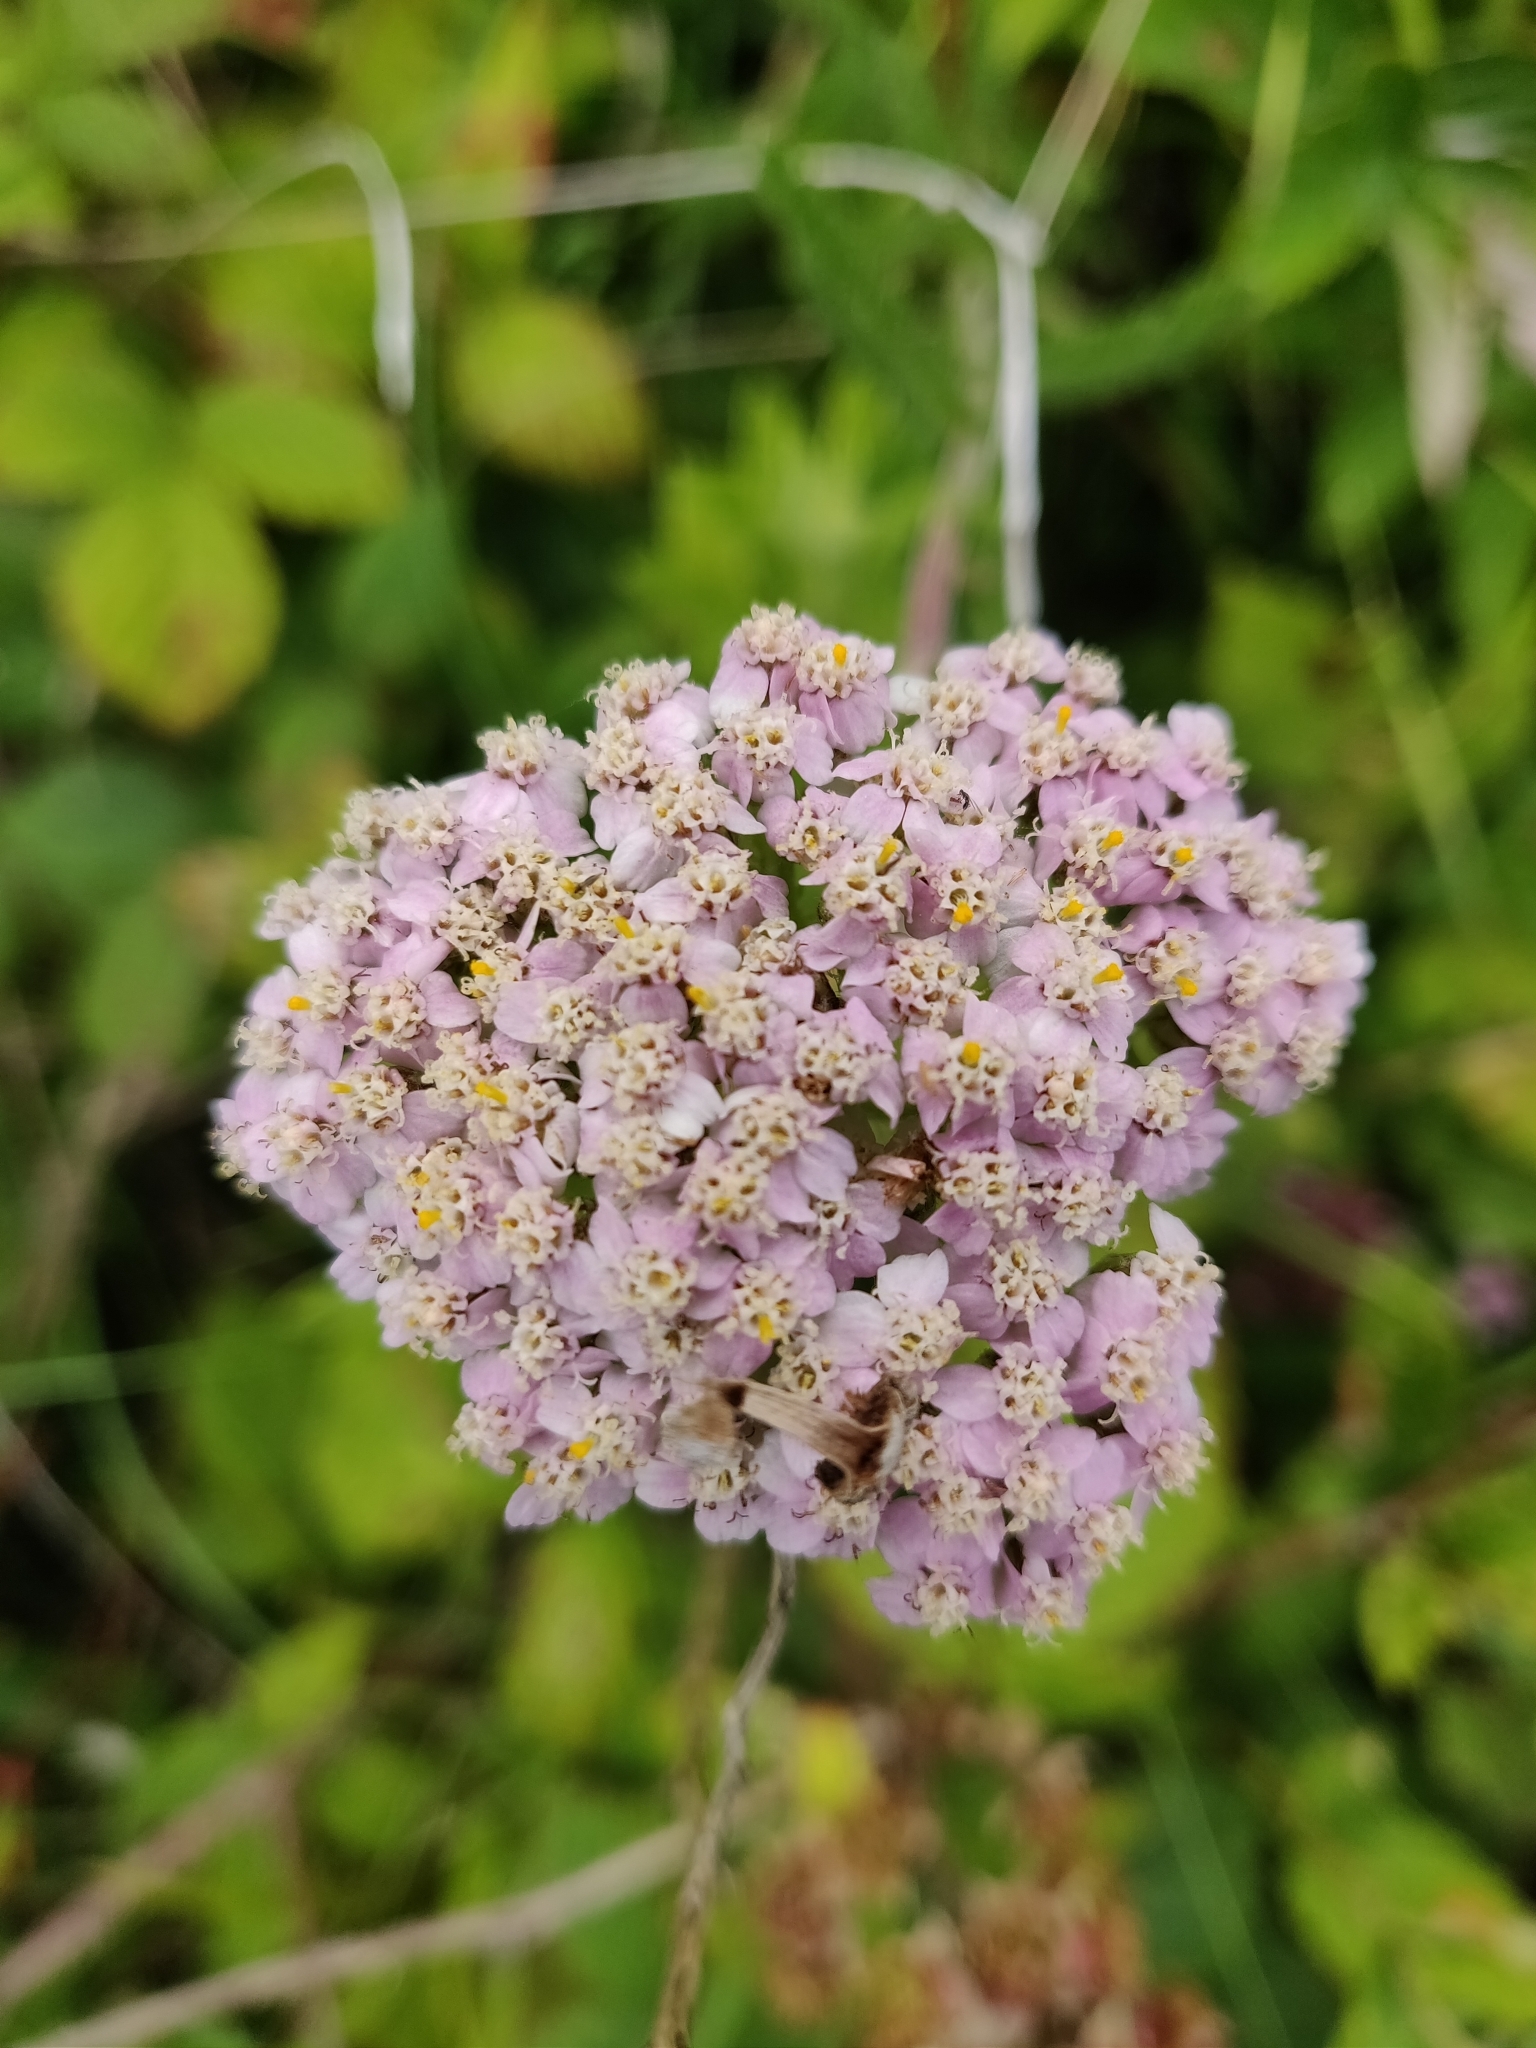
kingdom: Plantae
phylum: Tracheophyta
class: Magnoliopsida
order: Asterales
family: Asteraceae
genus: Achillea
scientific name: Achillea millefolium
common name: Yarrow
